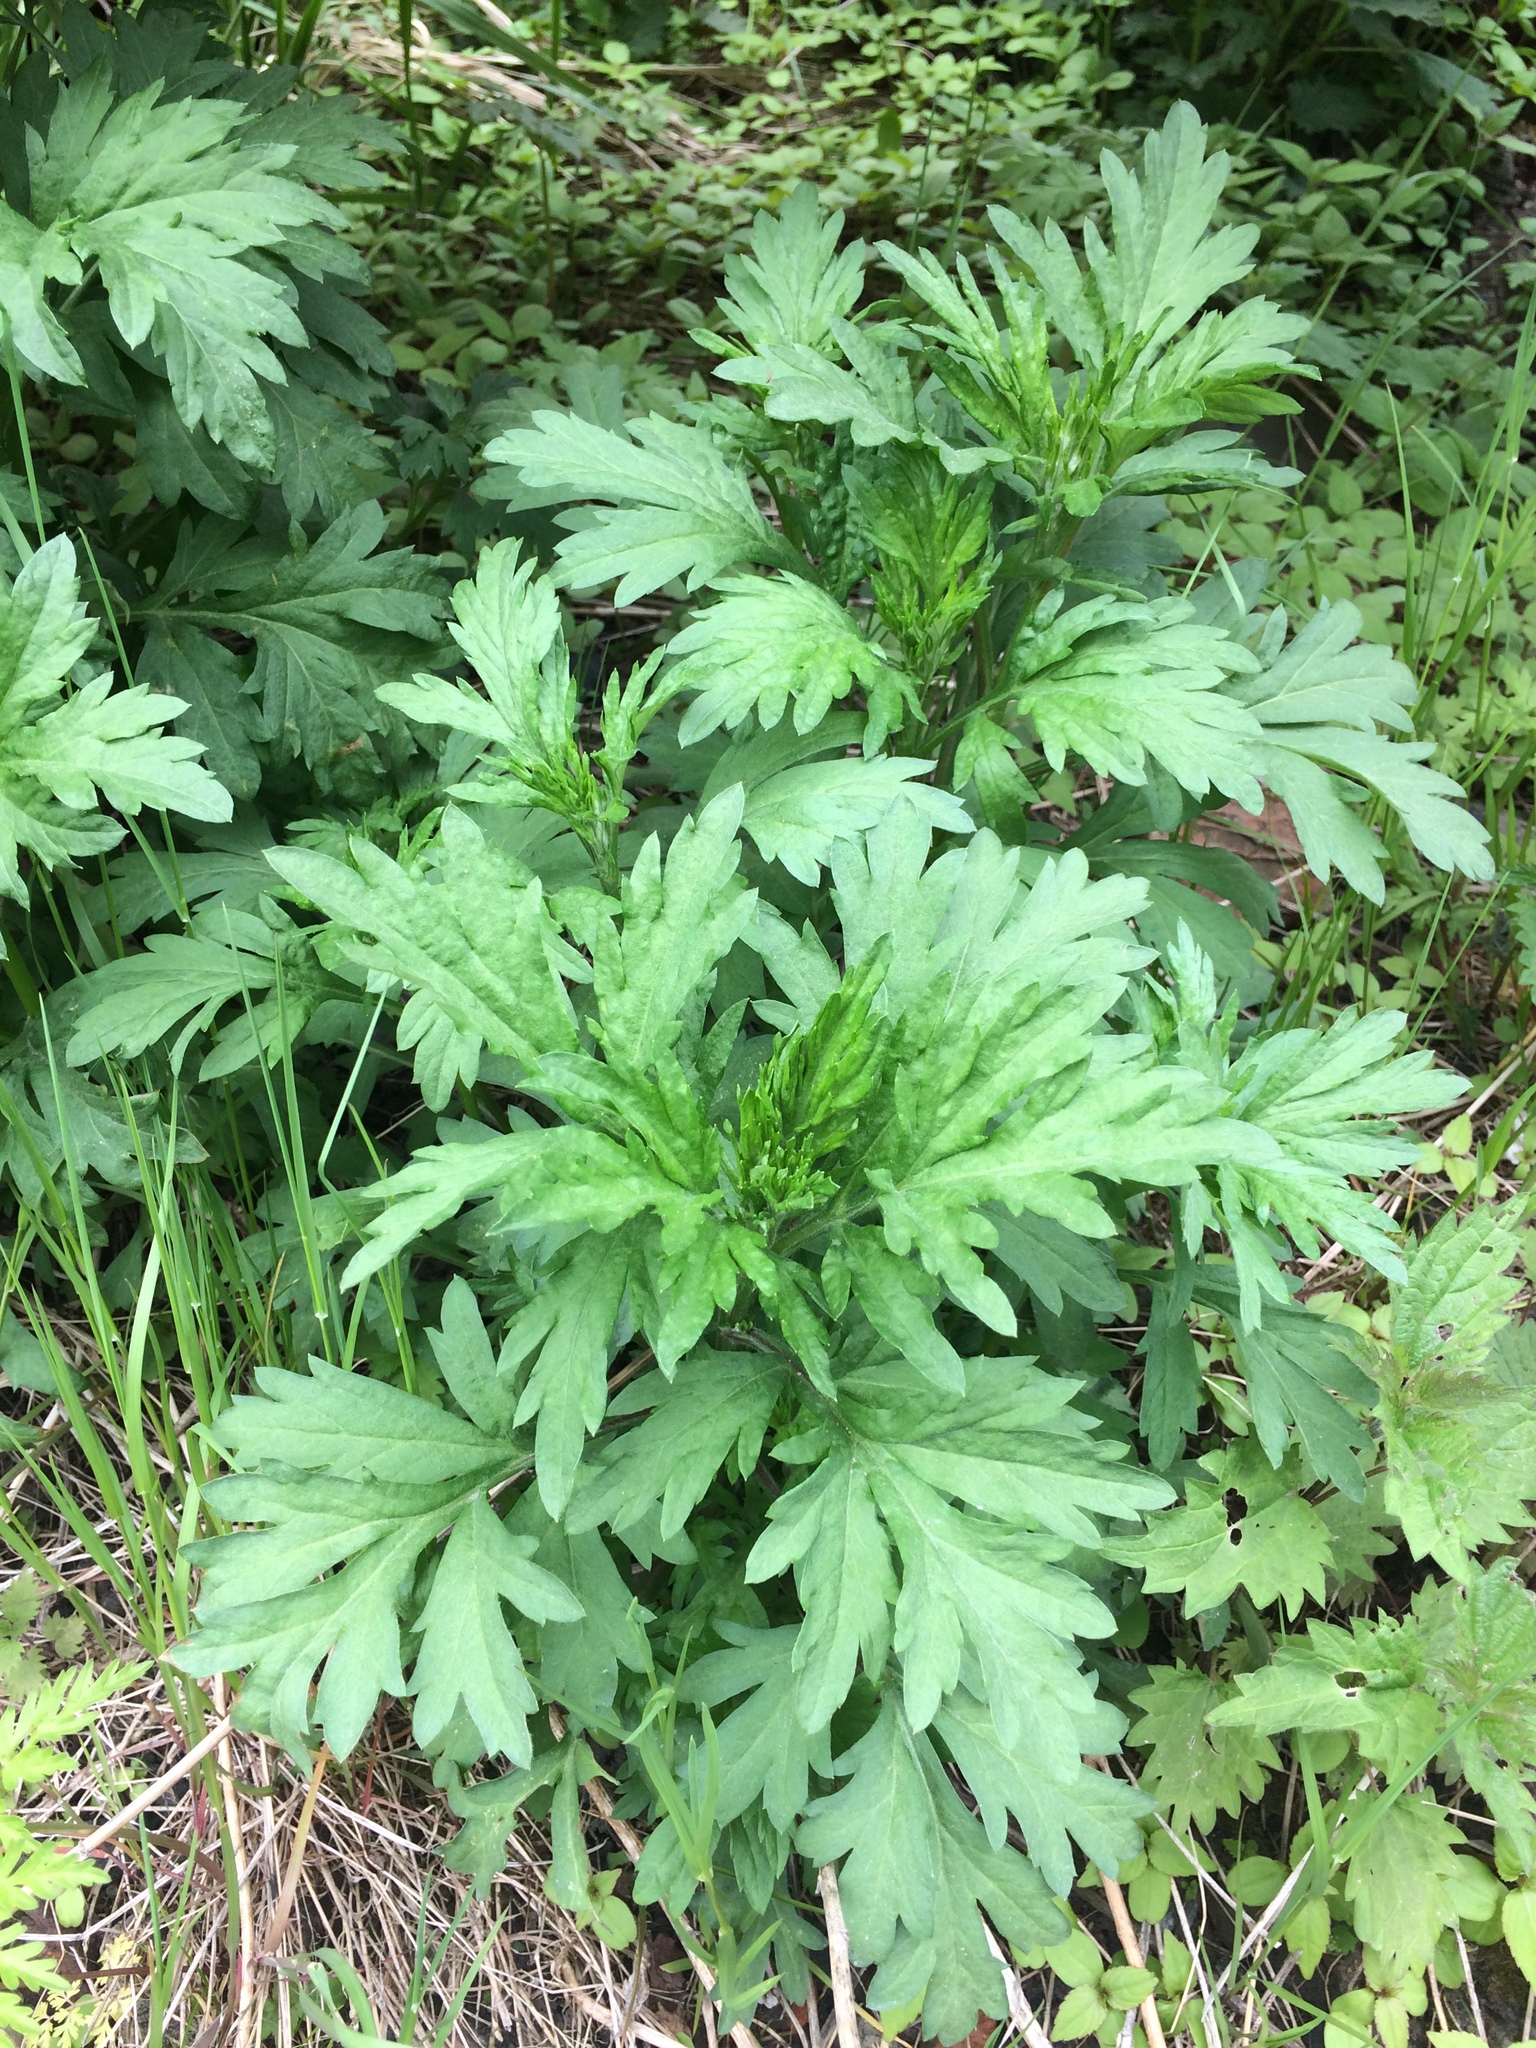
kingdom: Plantae
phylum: Tracheophyta
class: Magnoliopsida
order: Asterales
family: Asteraceae
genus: Artemisia
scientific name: Artemisia vulgaris
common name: Mugwort
